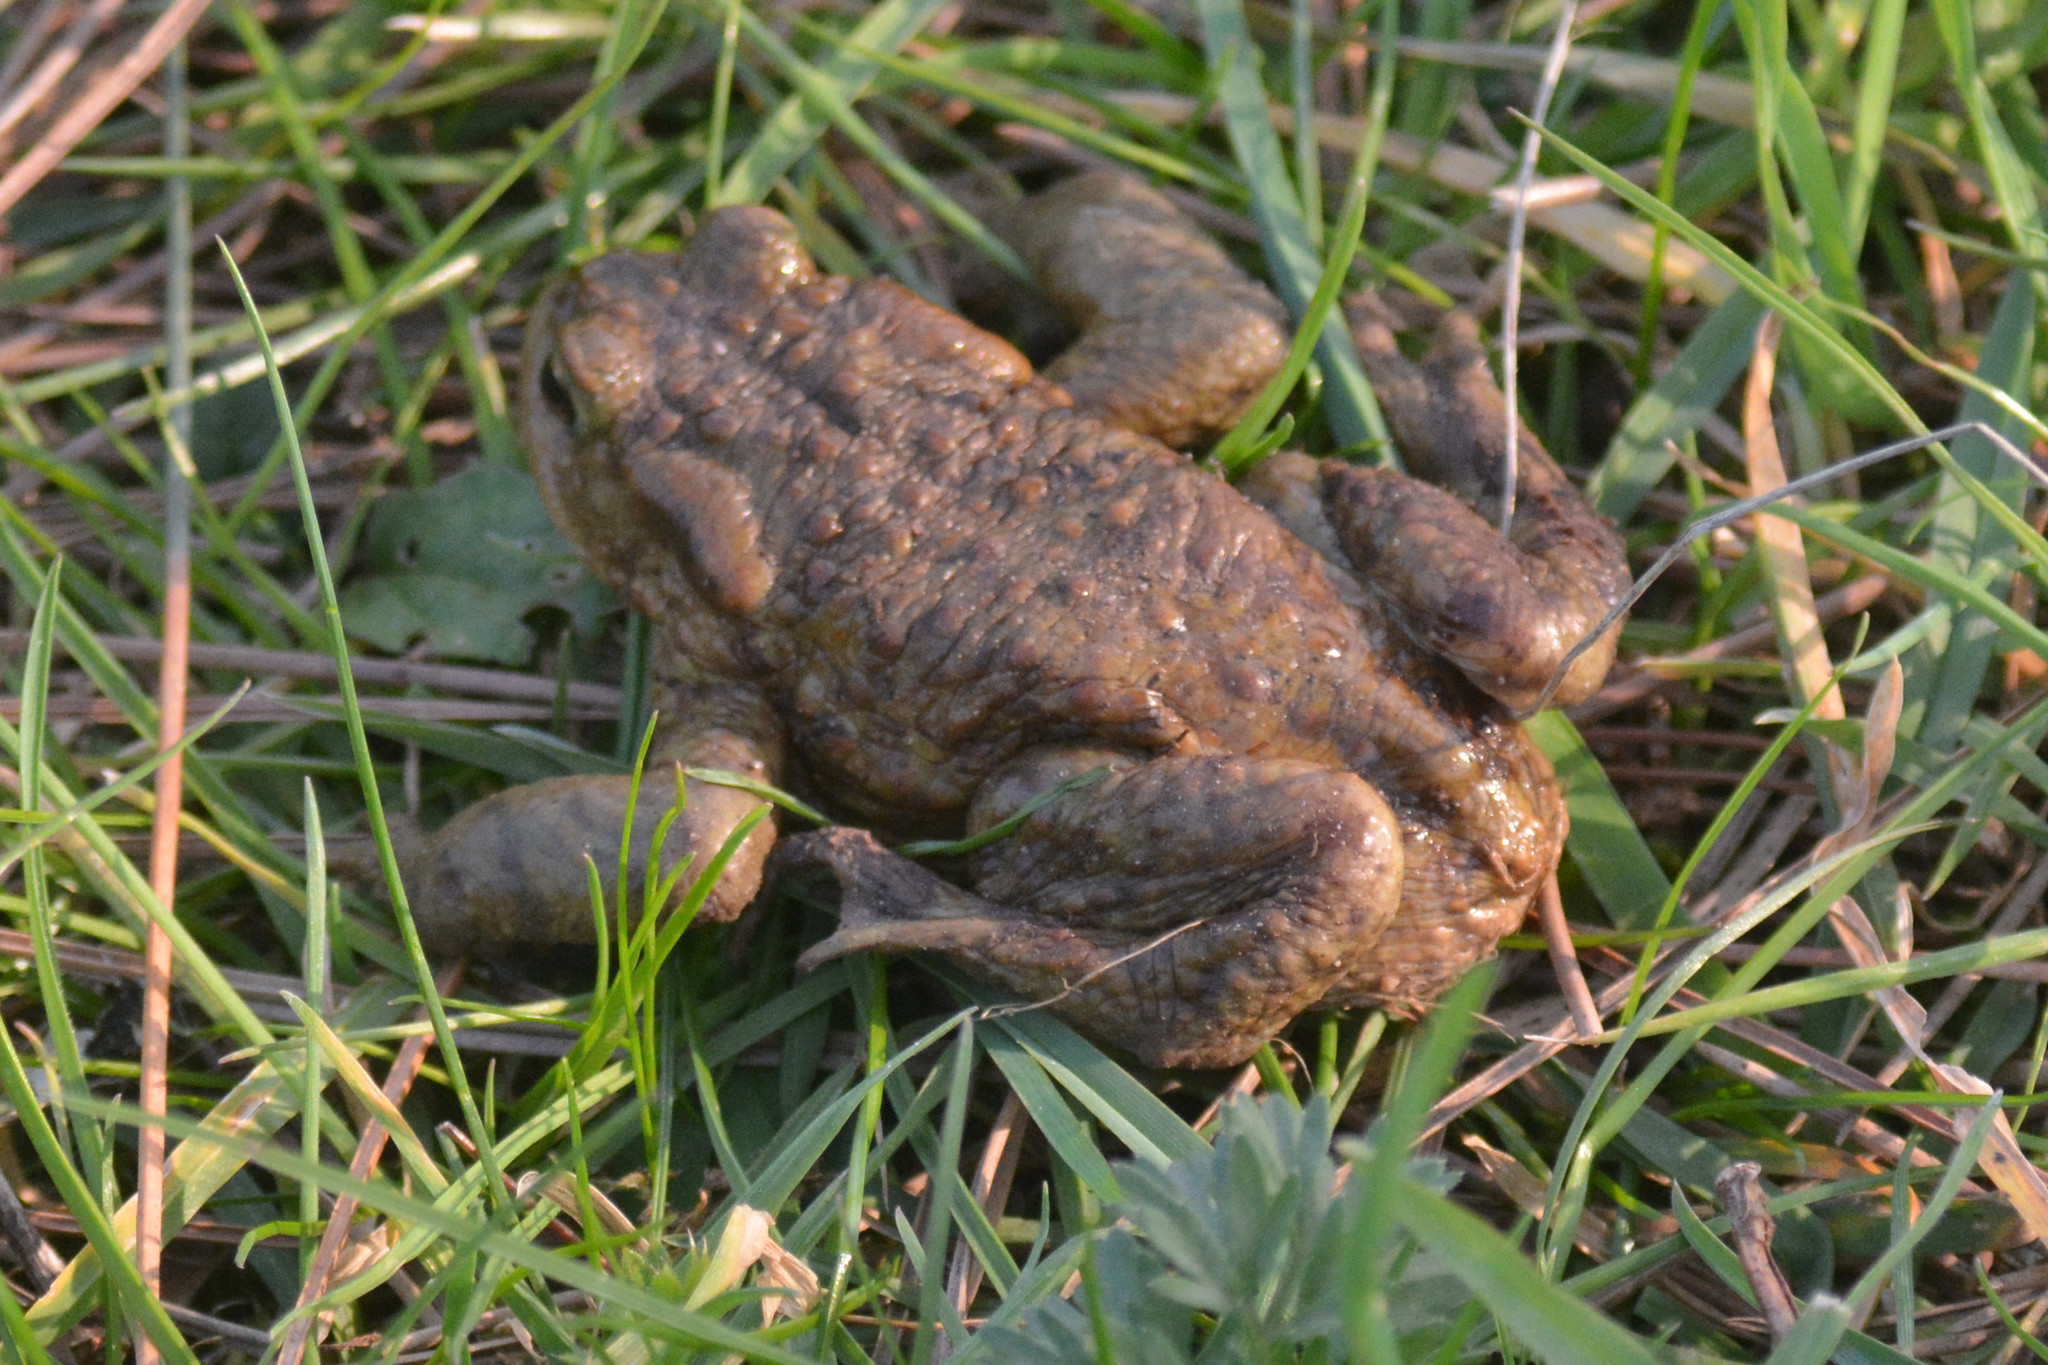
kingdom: Animalia
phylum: Chordata
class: Amphibia
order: Anura
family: Bufonidae
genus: Bufo
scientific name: Bufo bufo
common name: Common toad
